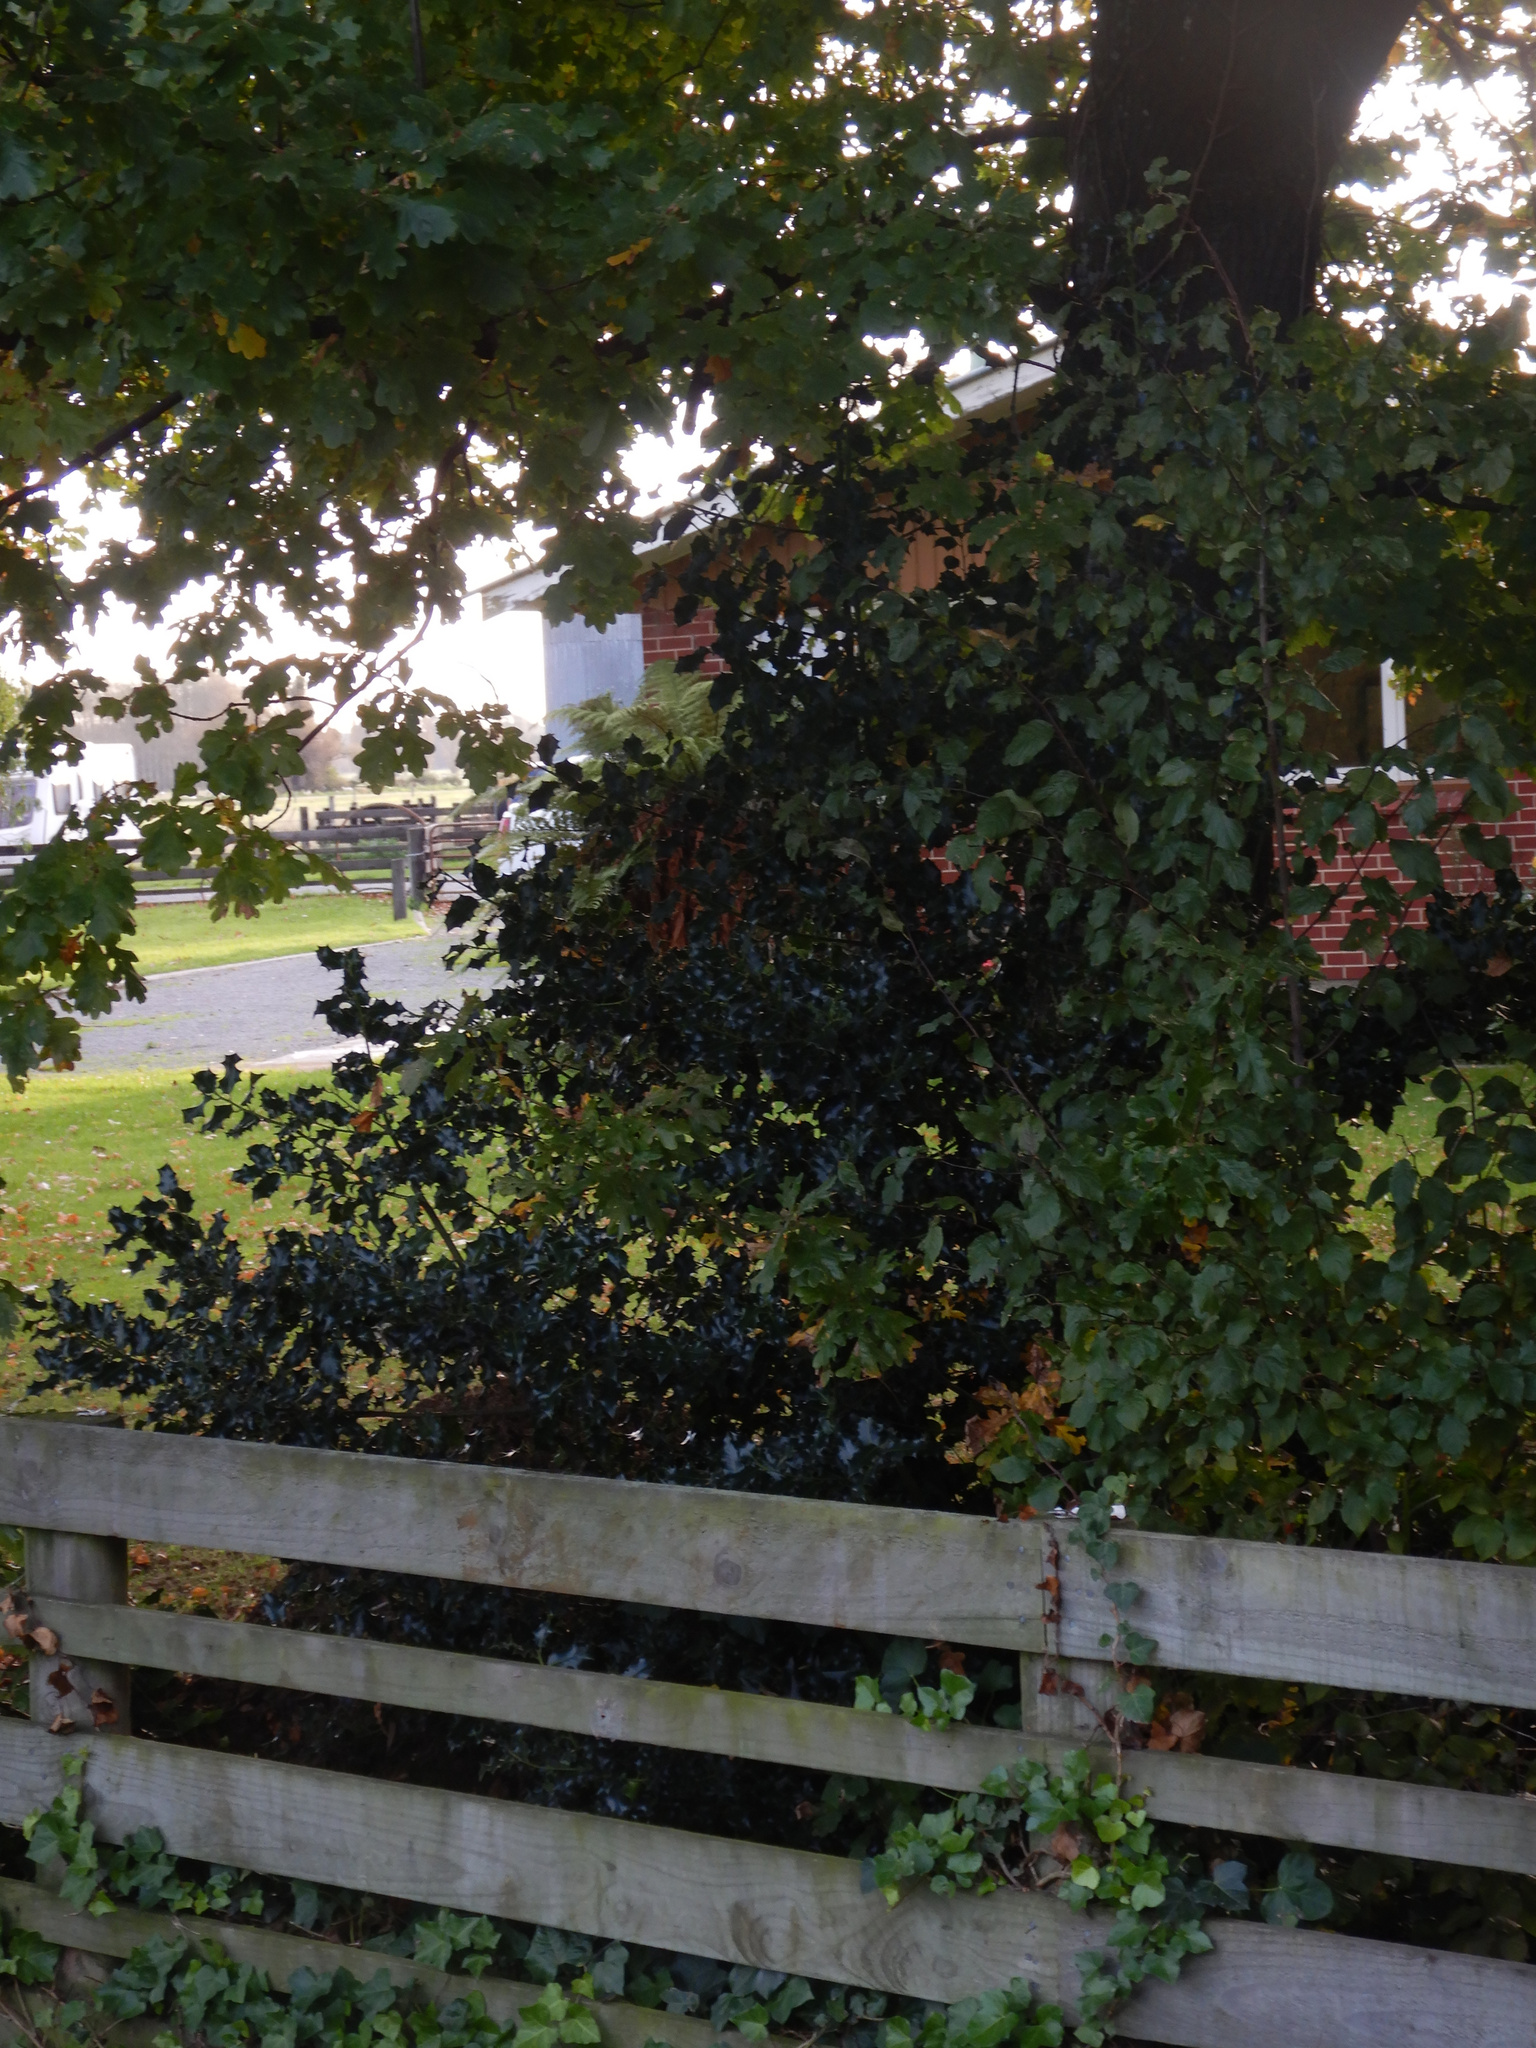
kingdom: Plantae
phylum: Tracheophyta
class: Magnoliopsida
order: Aquifoliales
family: Aquifoliaceae
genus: Ilex
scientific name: Ilex aquifolium
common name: English holly
